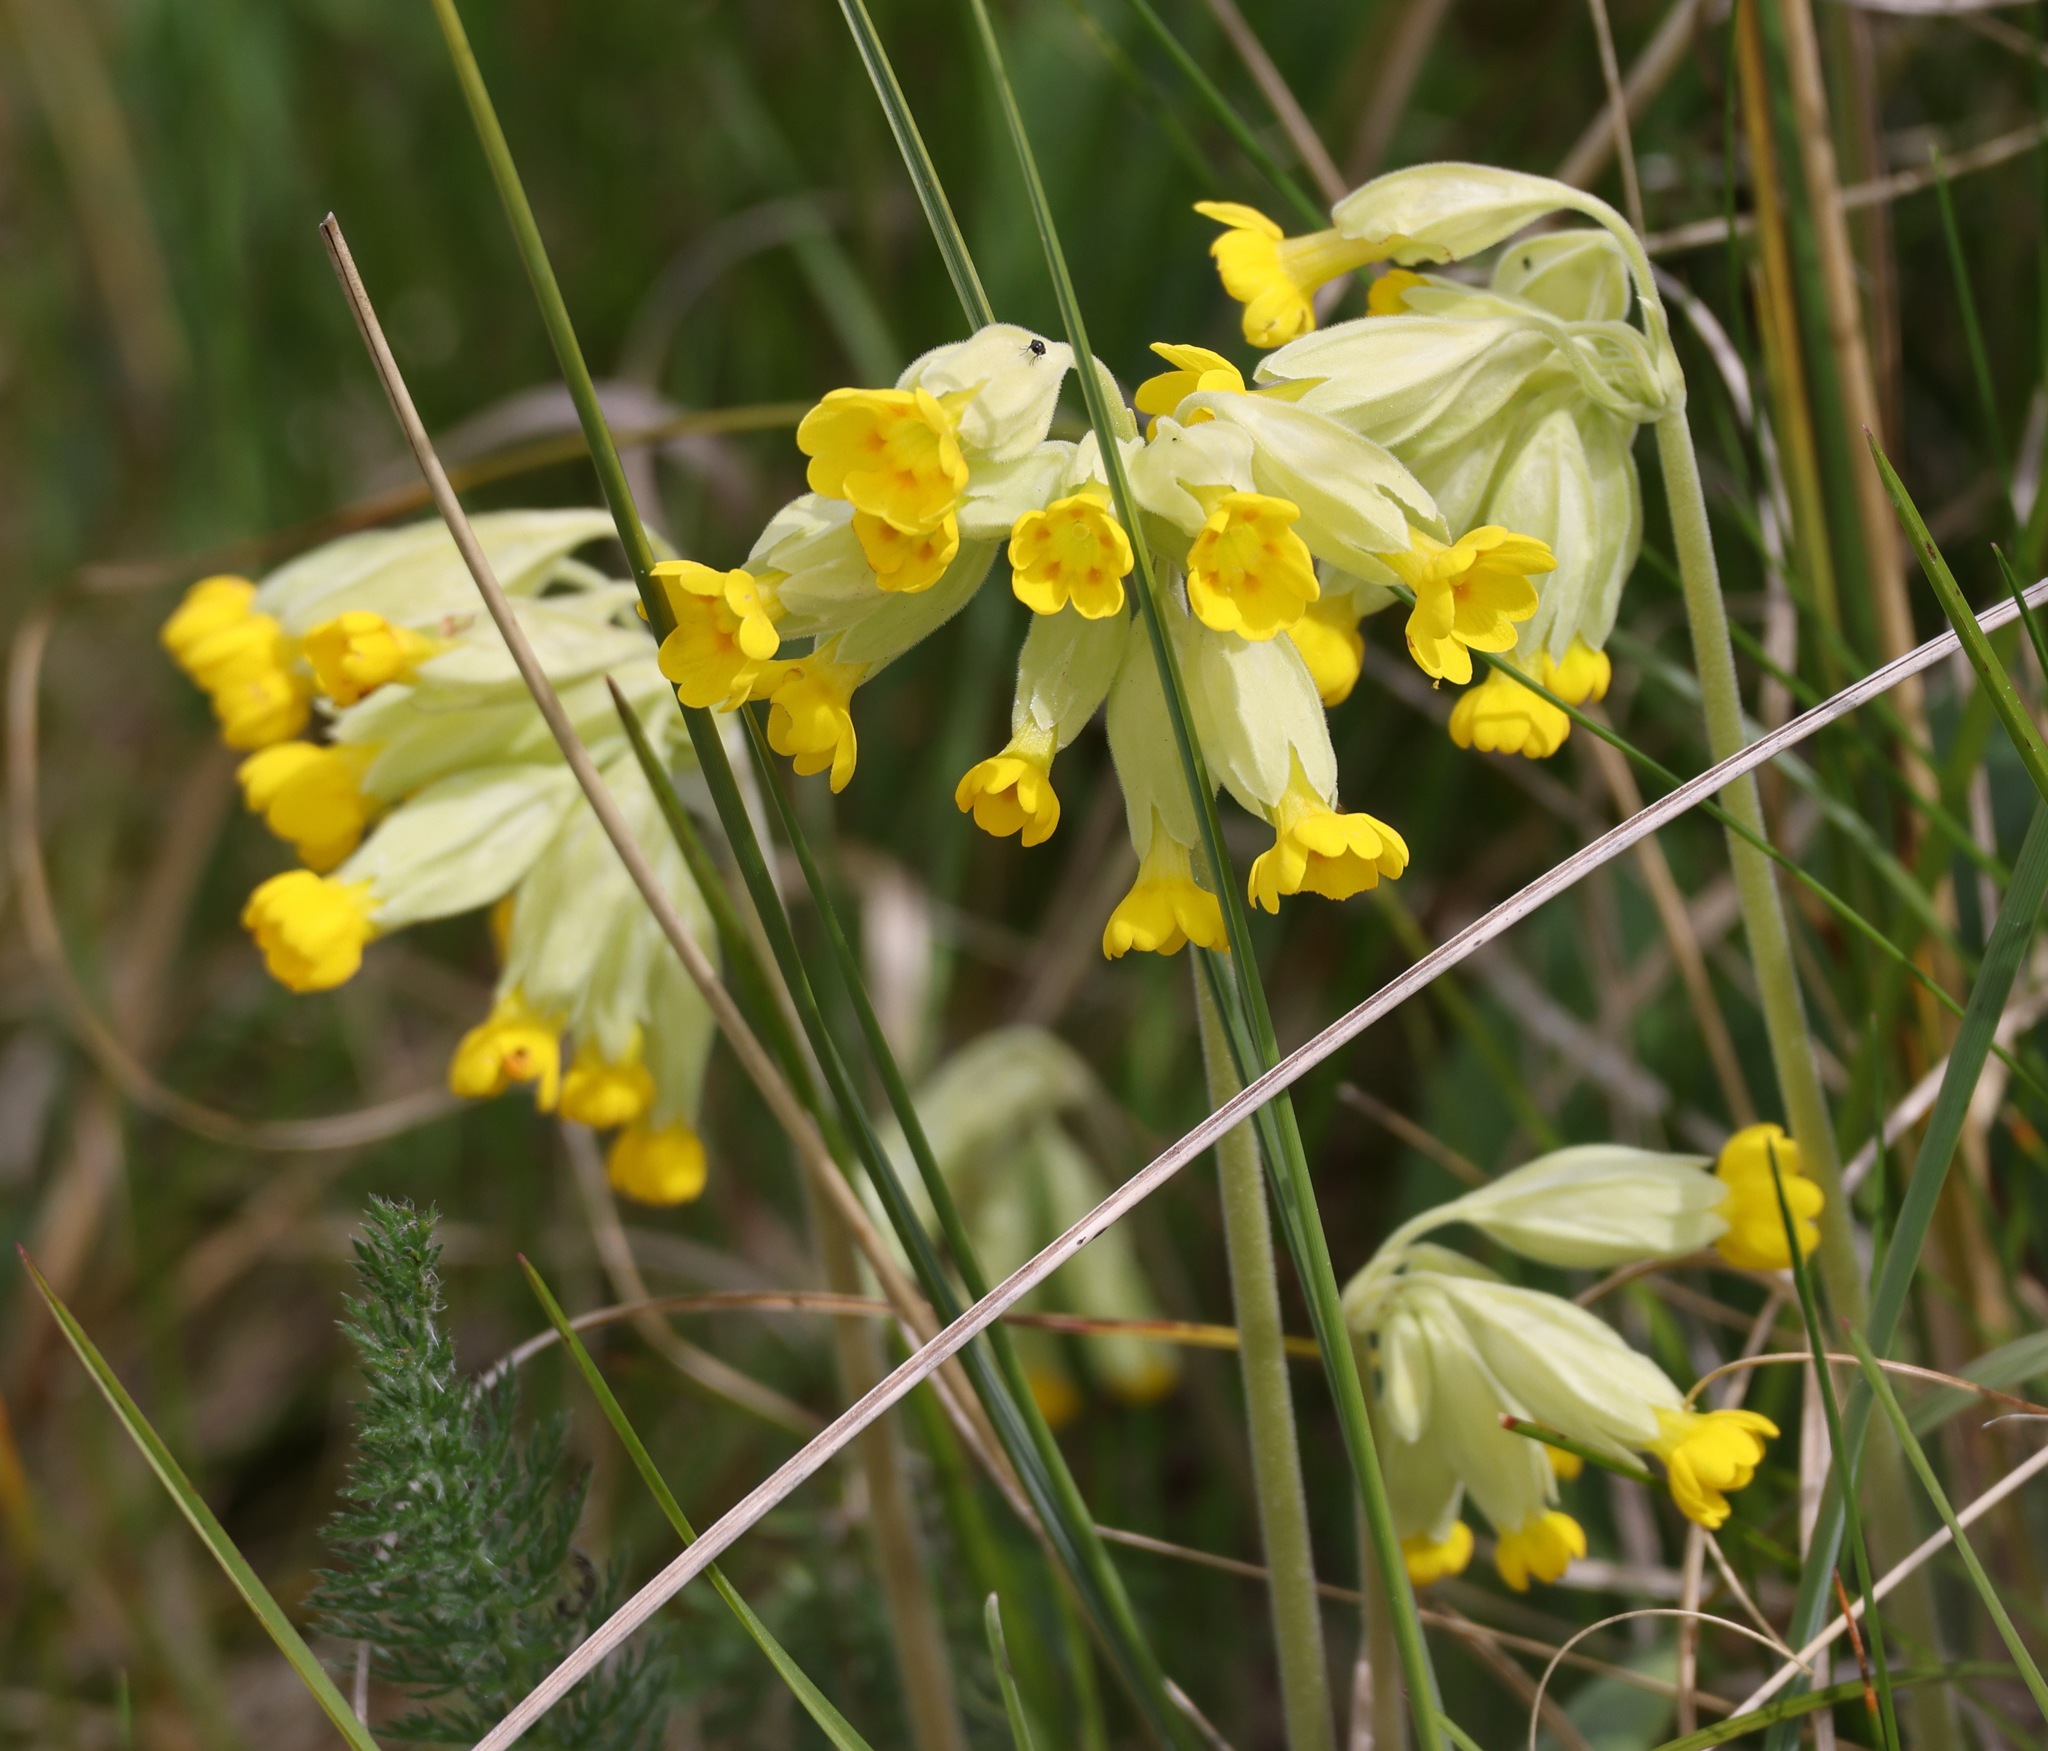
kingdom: Plantae
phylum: Tracheophyta
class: Magnoliopsida
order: Ericales
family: Primulaceae
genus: Primula
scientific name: Primula veris
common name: Cowslip
